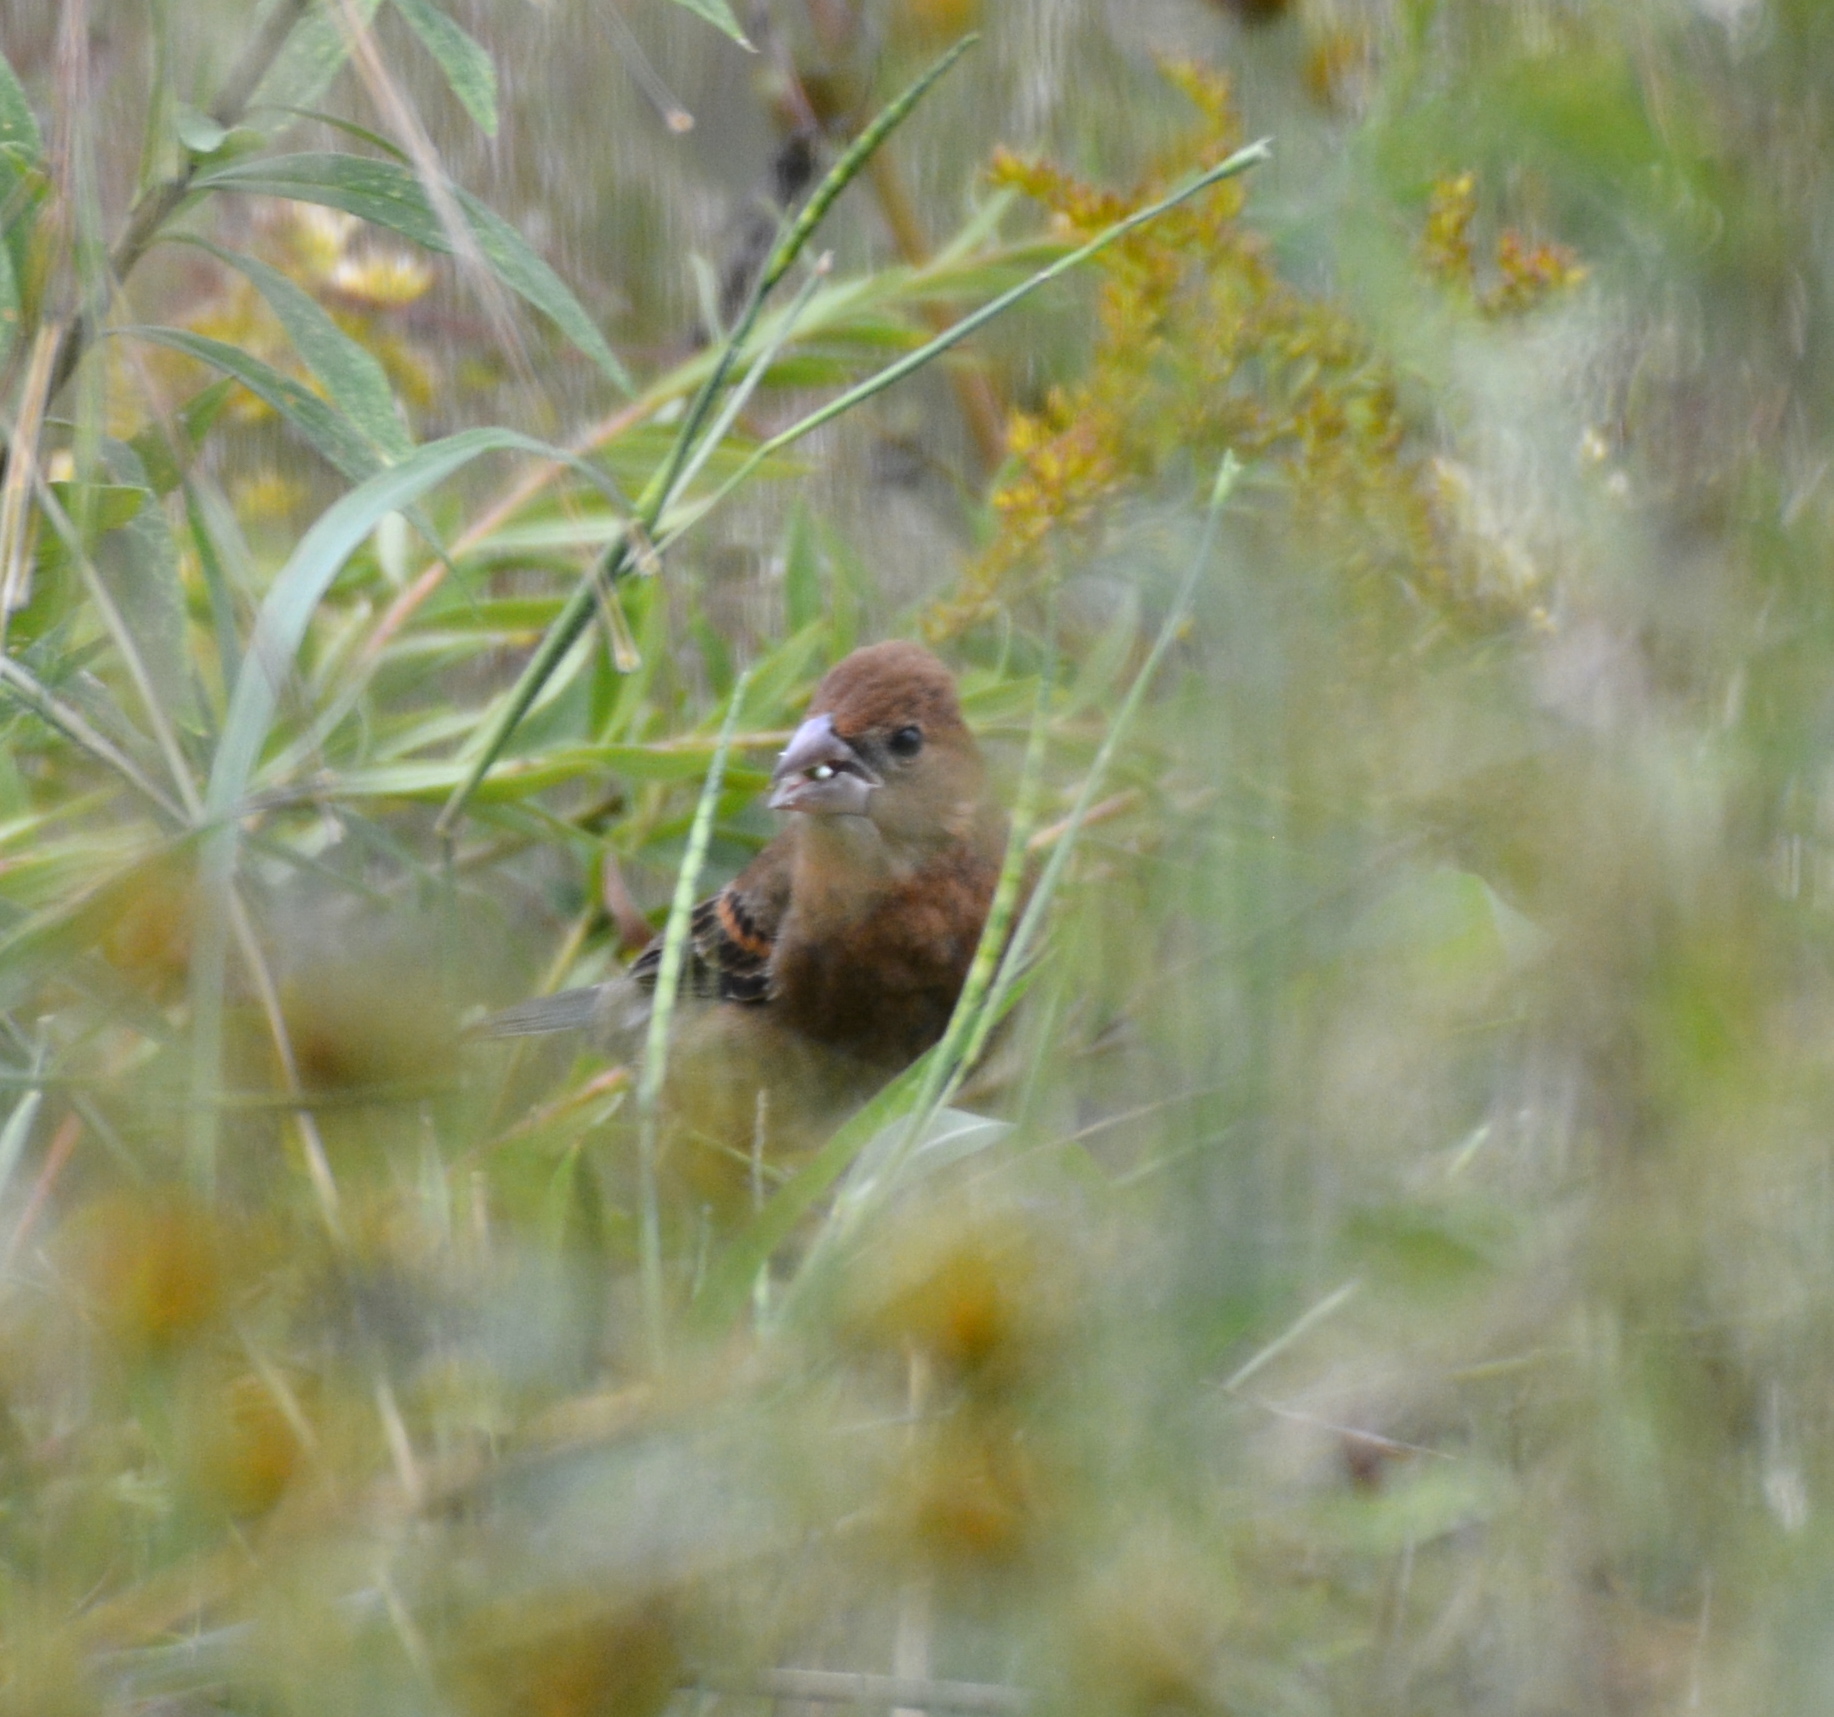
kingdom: Animalia
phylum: Chordata
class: Aves
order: Passeriformes
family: Cardinalidae
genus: Passerina
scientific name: Passerina caerulea
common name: Blue grosbeak
